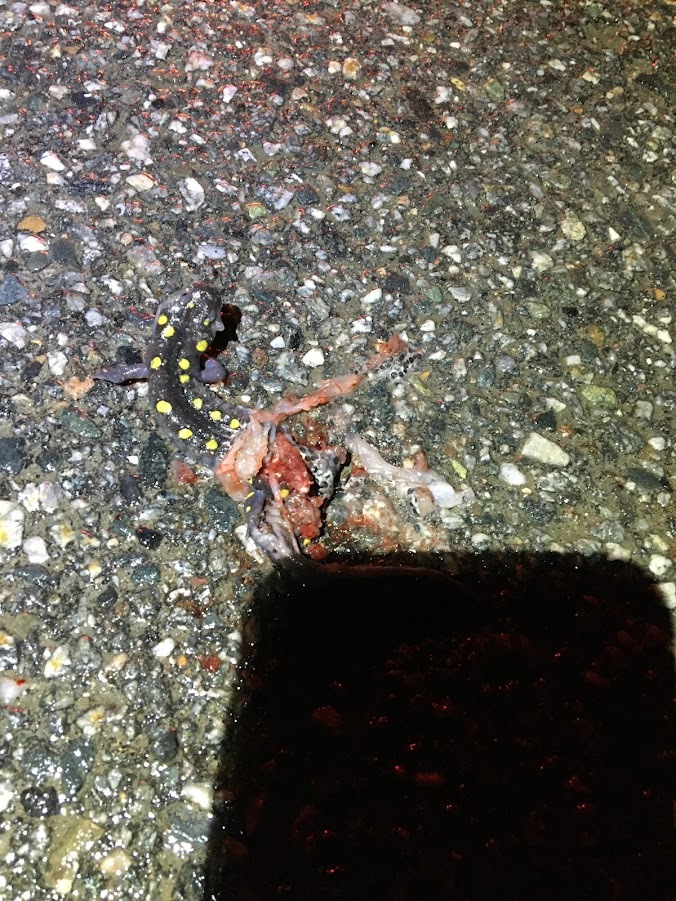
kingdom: Animalia
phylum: Chordata
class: Amphibia
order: Caudata
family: Ambystomatidae
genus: Ambystoma
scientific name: Ambystoma maculatum
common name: Spotted salamander
